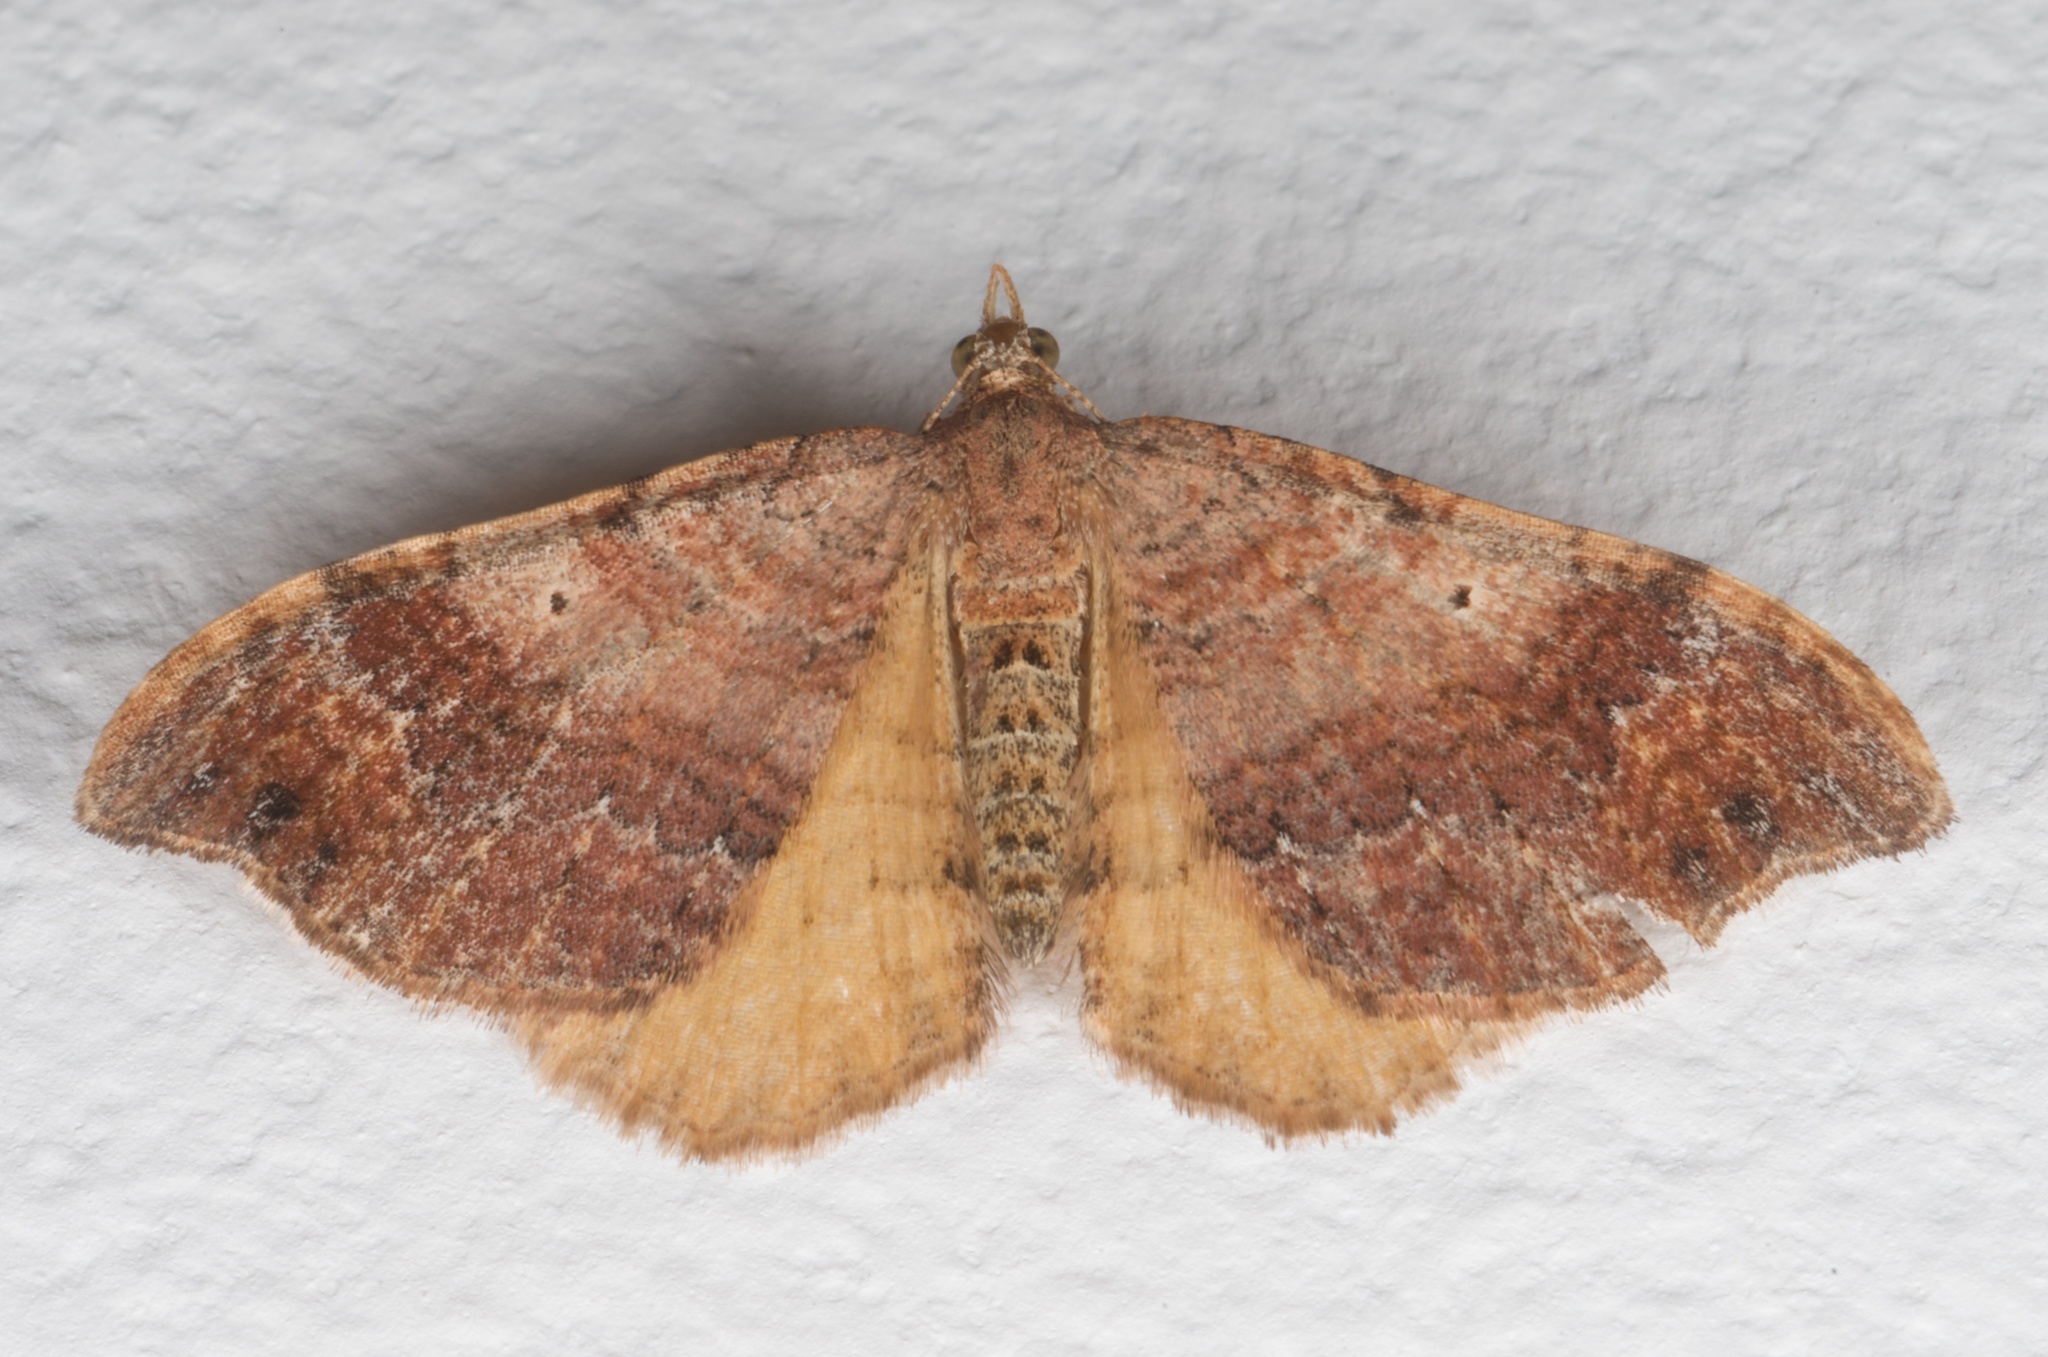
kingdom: Animalia
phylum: Arthropoda
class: Insecta
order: Lepidoptera
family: Geometridae
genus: Homodotis
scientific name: Homodotis megaspilata
